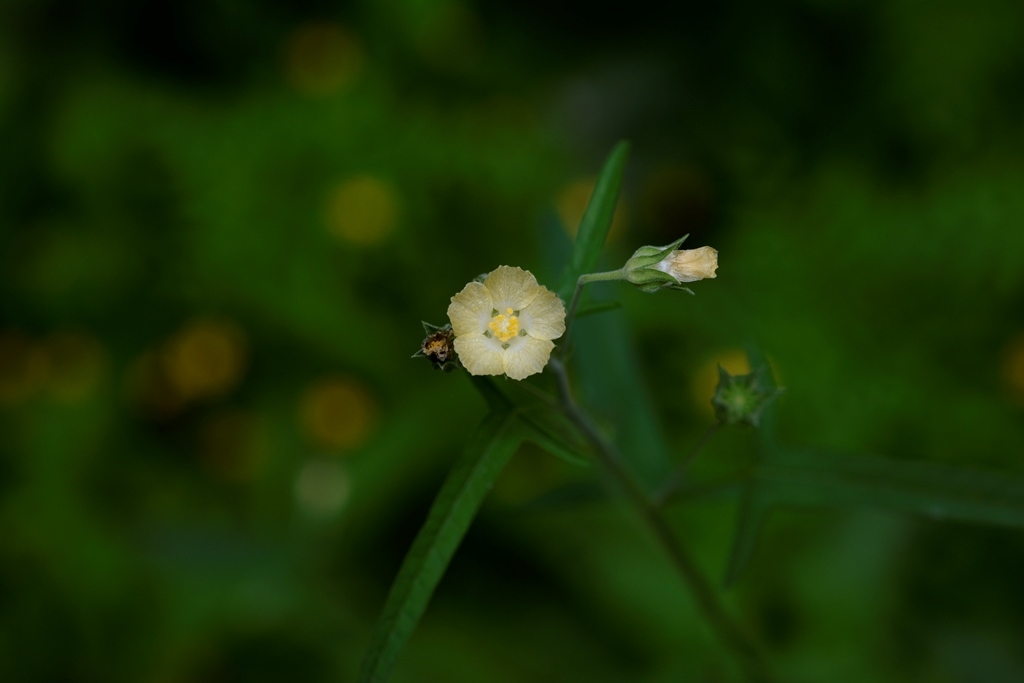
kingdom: Plantae
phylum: Tracheophyta
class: Magnoliopsida
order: Malvales
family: Malvaceae
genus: Anoda
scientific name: Anoda crenatiflora
